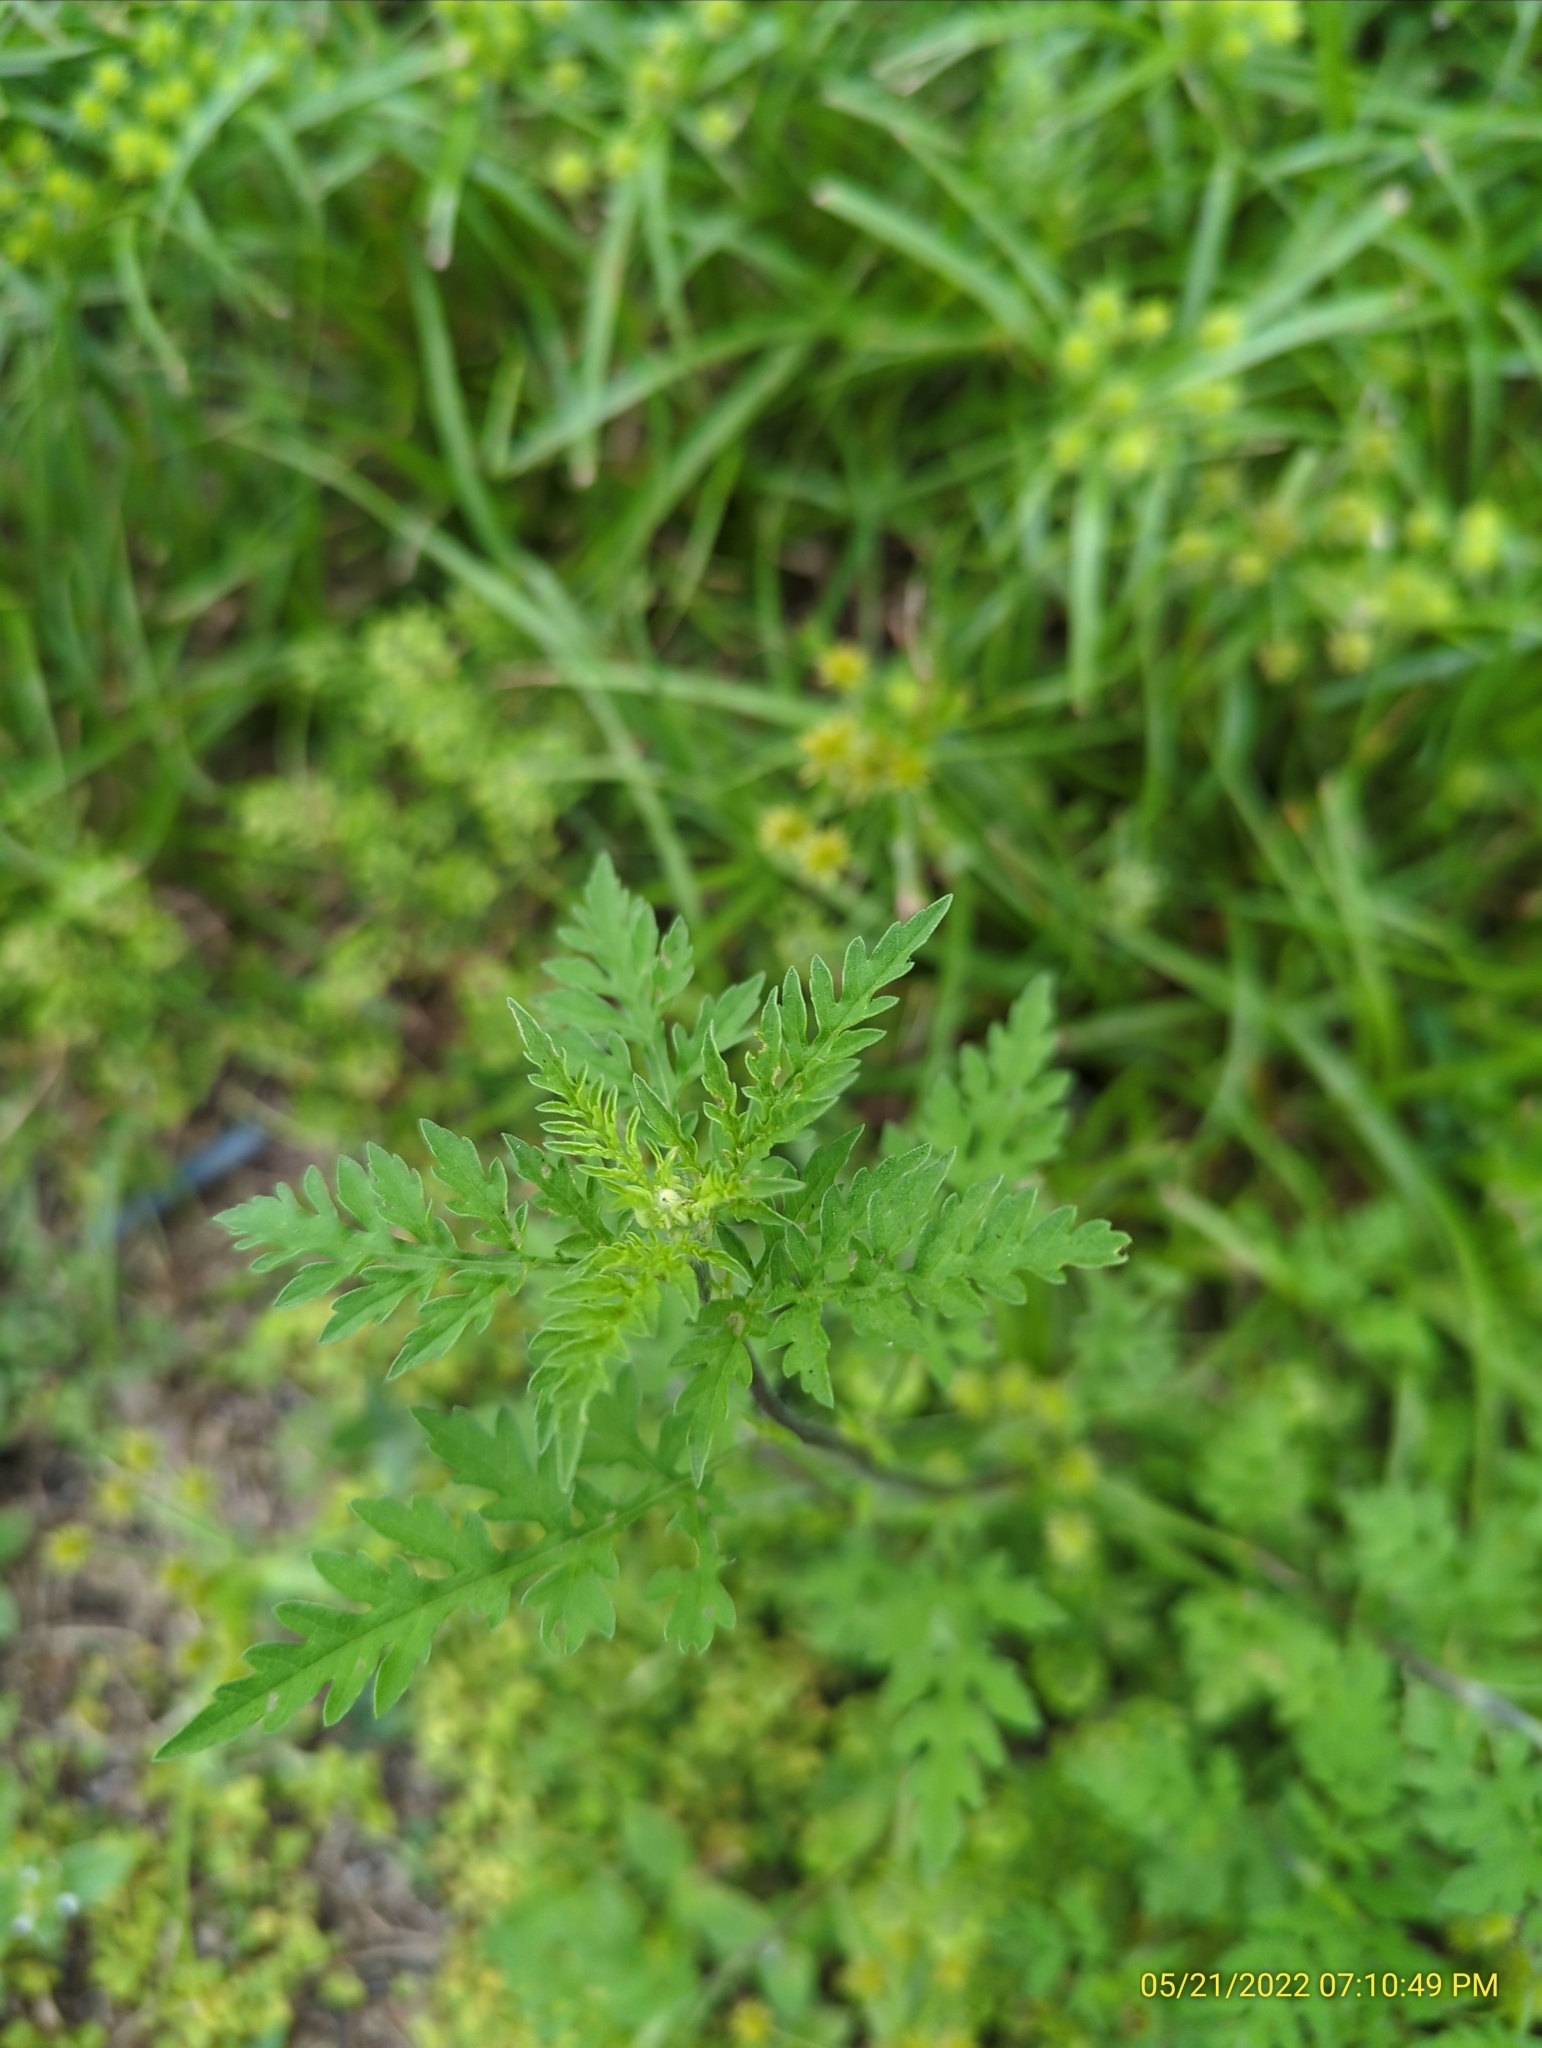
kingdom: Plantae
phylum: Tracheophyta
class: Magnoliopsida
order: Asterales
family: Asteraceae
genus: Ambrosia
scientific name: Ambrosia artemisiifolia
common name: Annual ragweed
